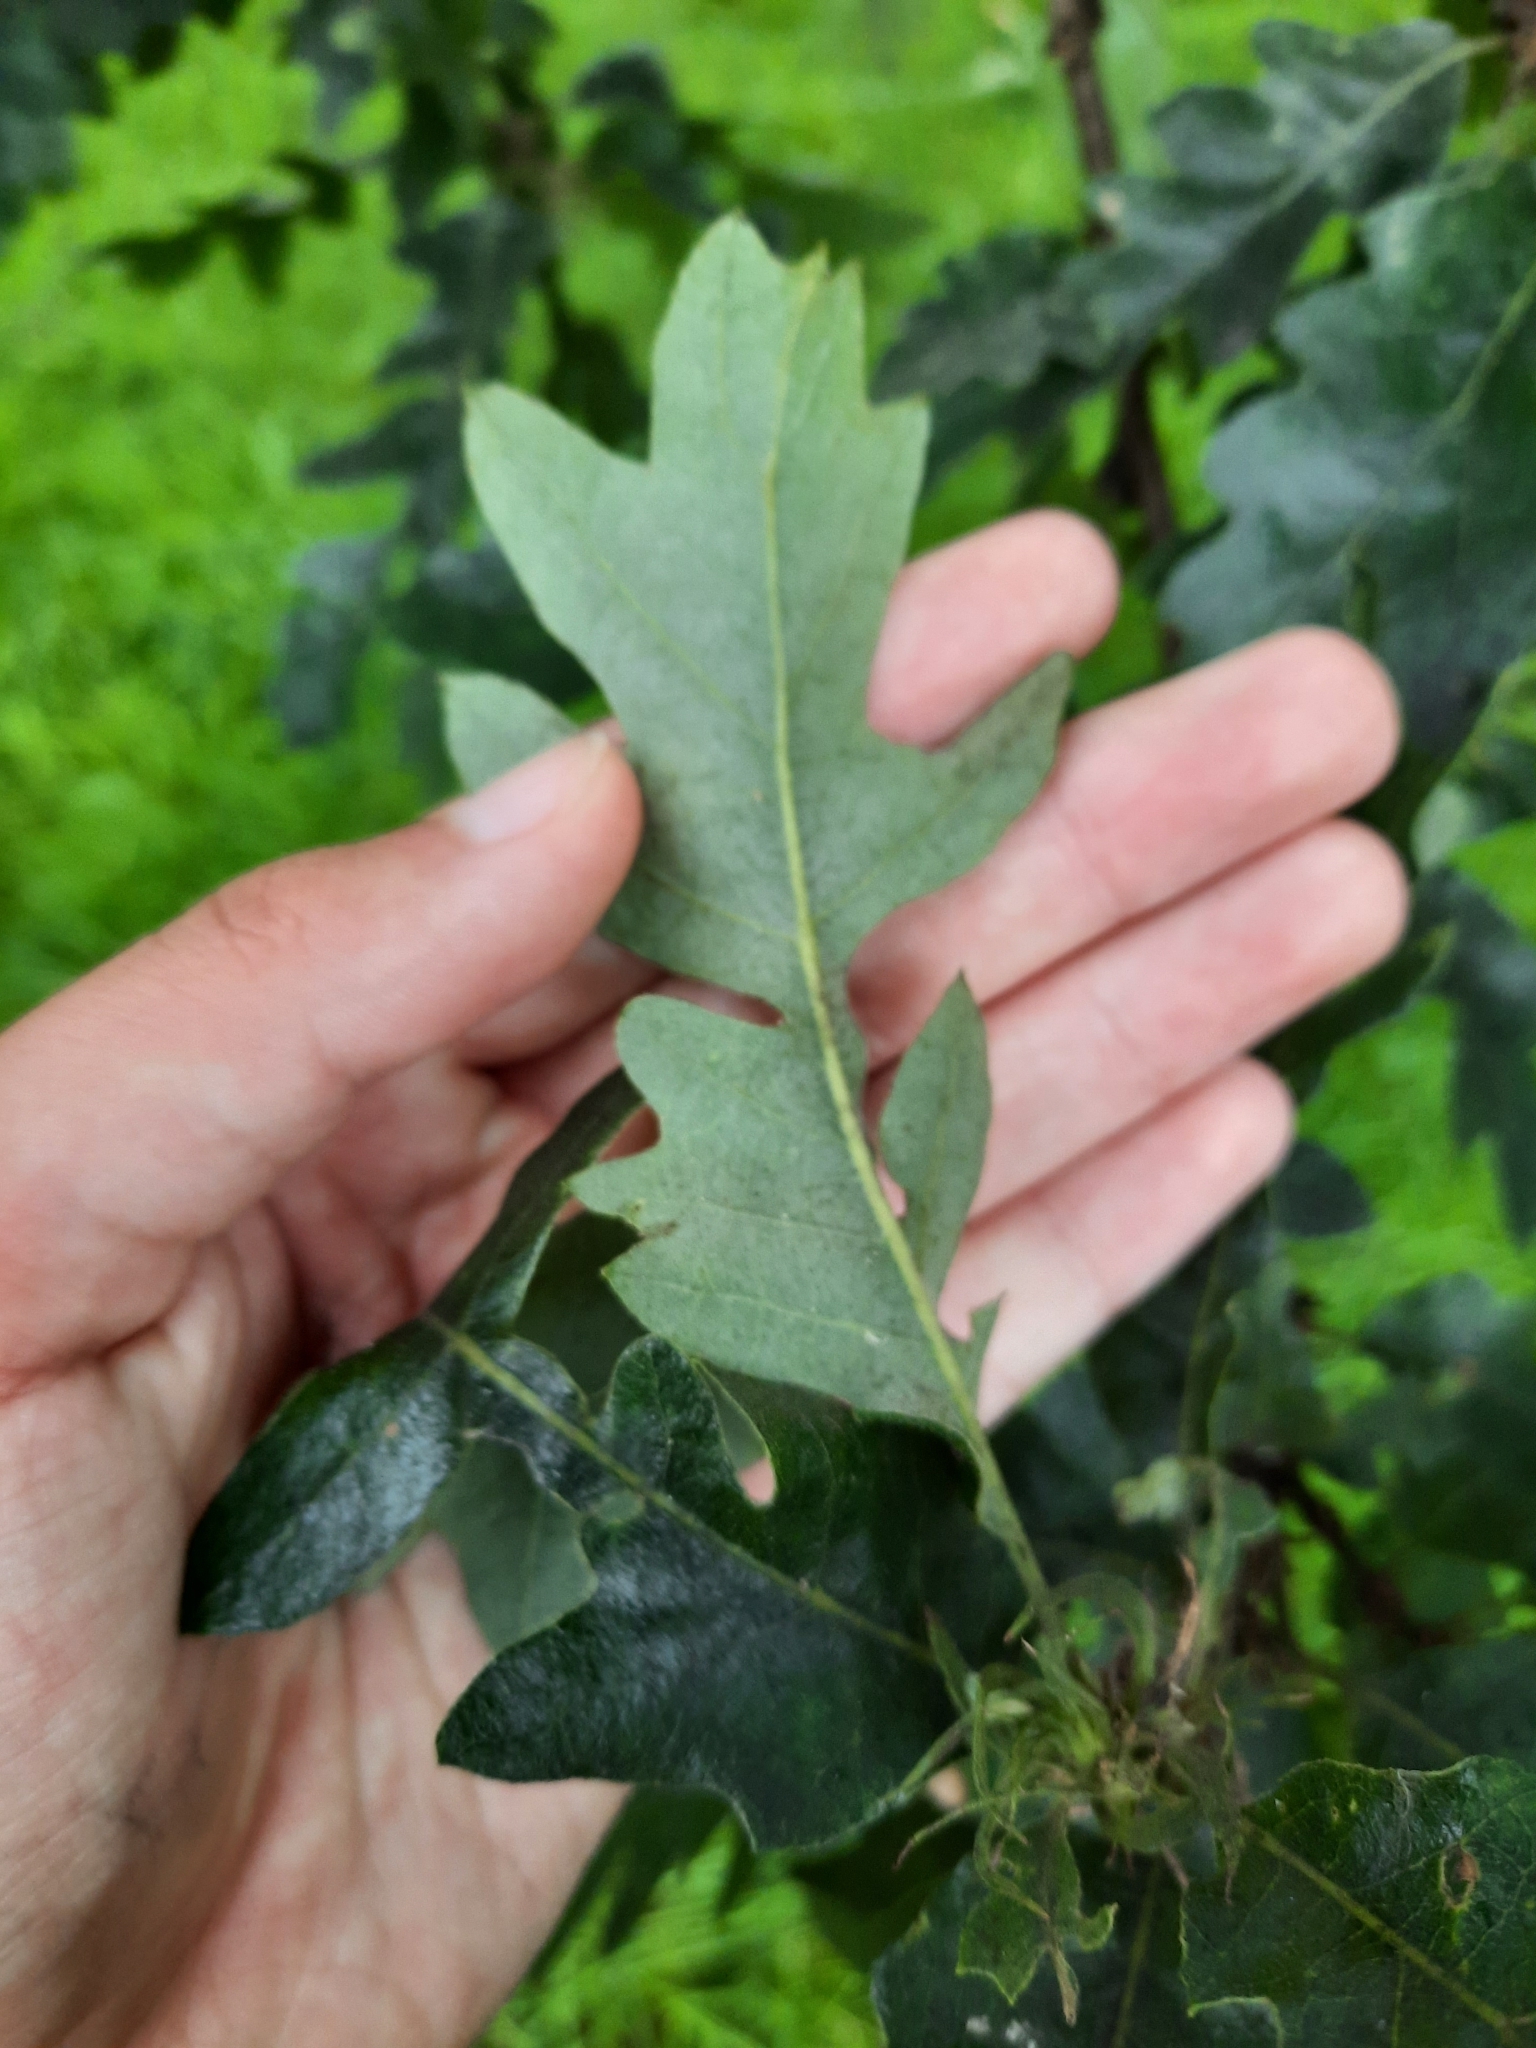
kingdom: Plantae
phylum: Tracheophyta
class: Magnoliopsida
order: Fagales
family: Fagaceae
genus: Quercus
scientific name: Quercus cerris
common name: Turkey oak
